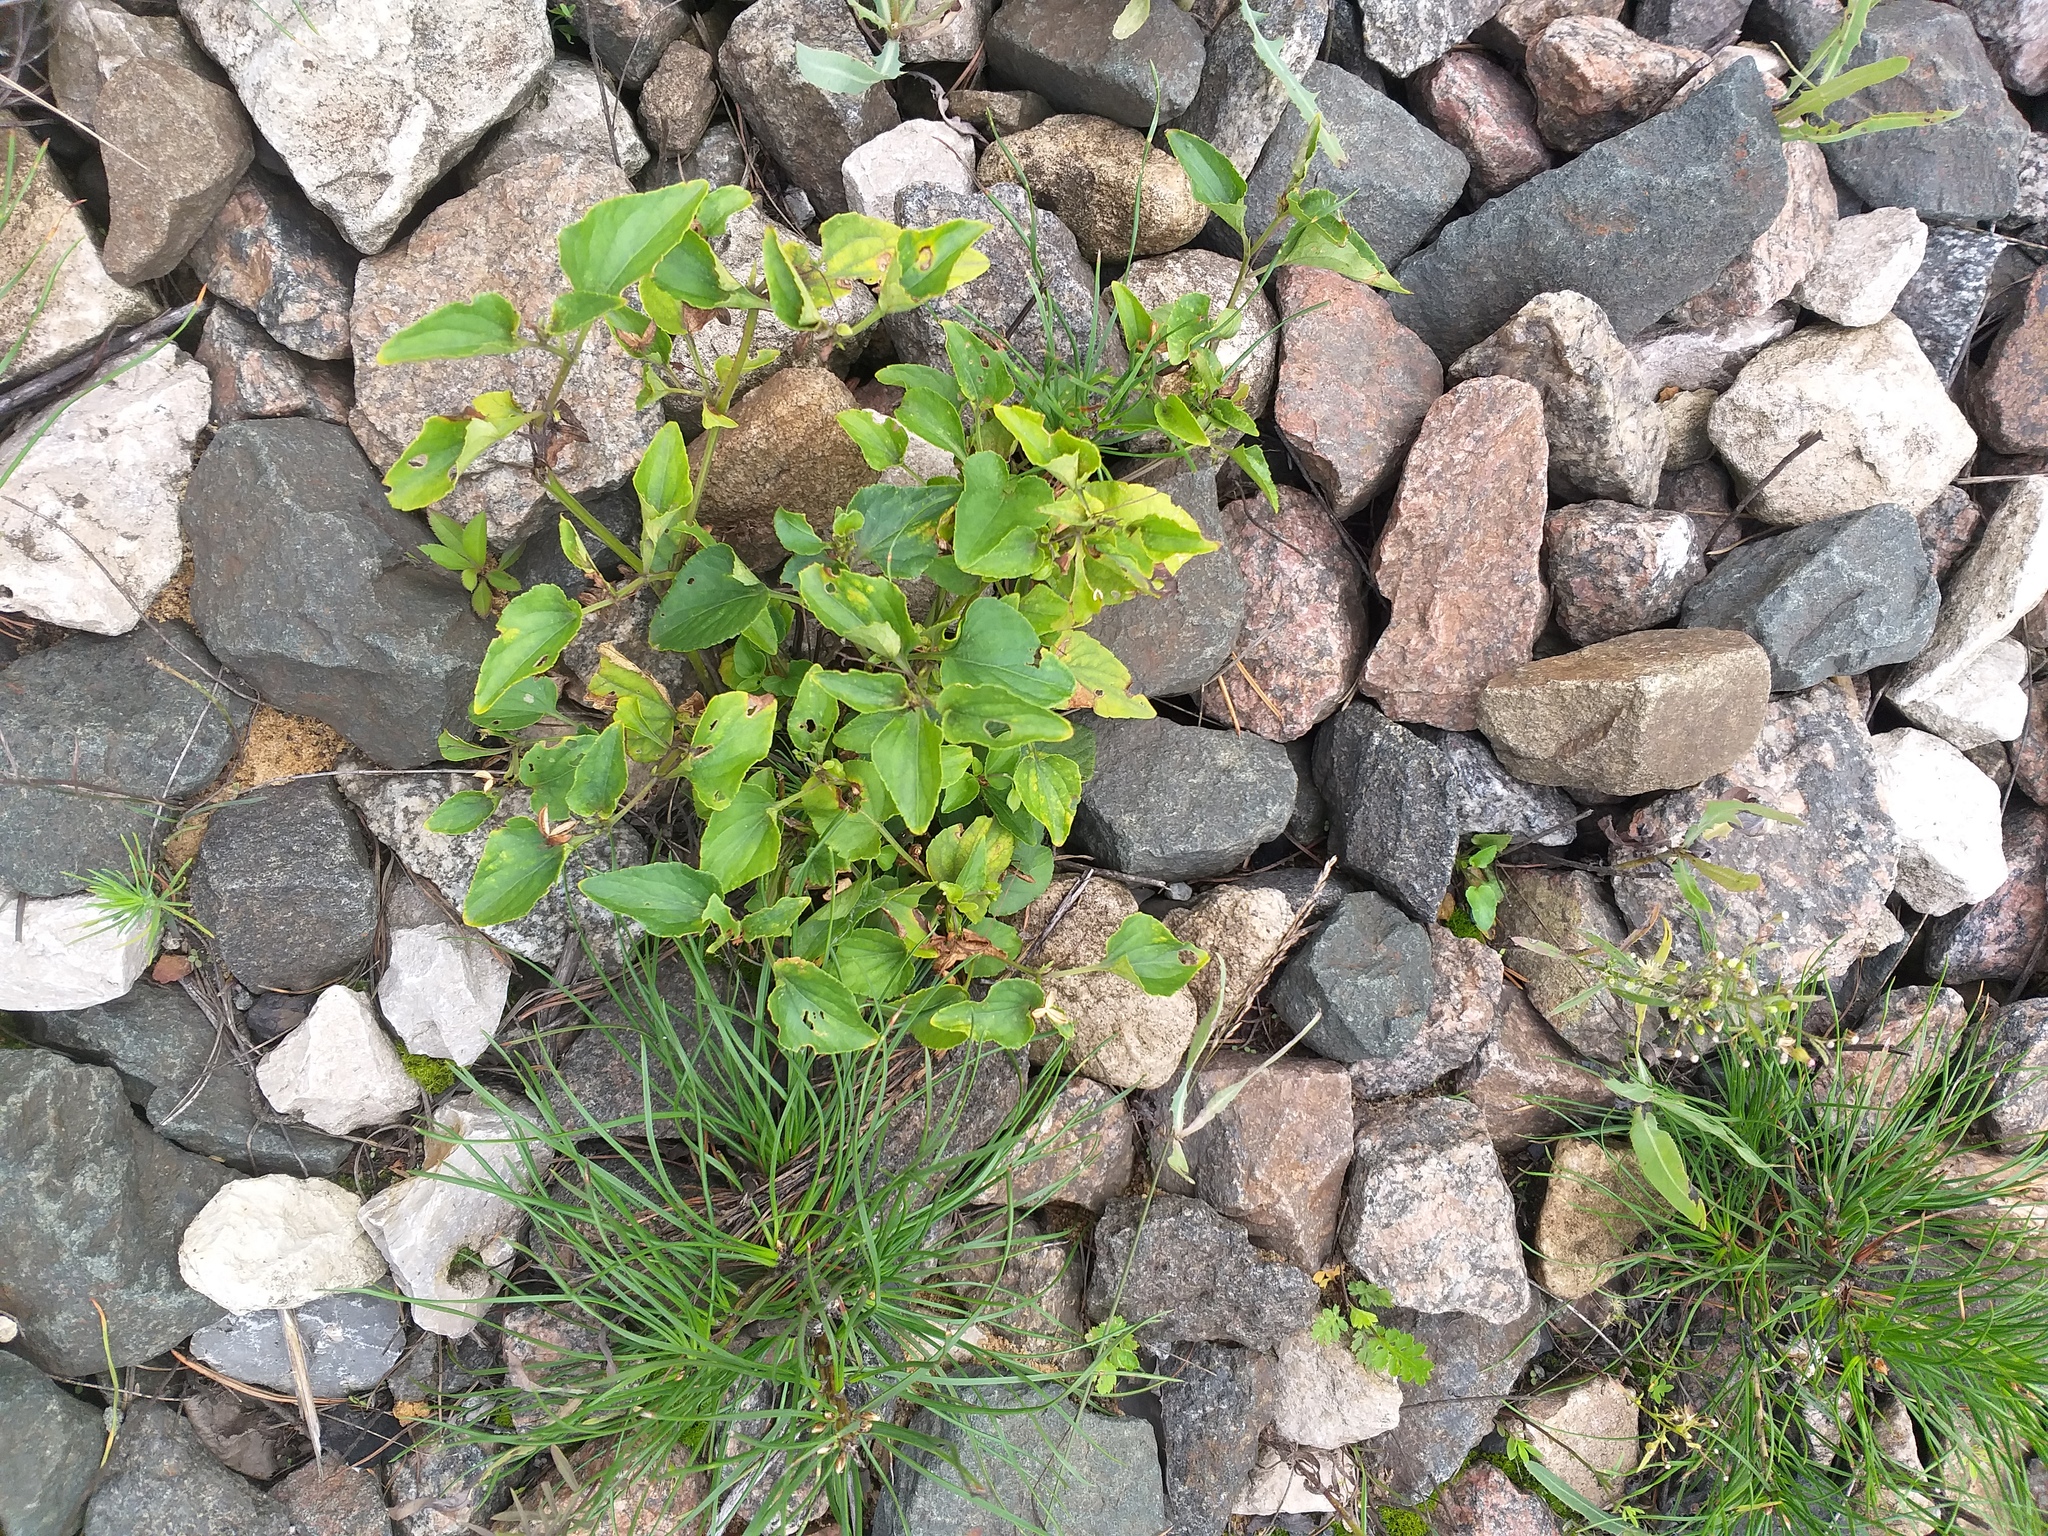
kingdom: Plantae
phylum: Tracheophyta
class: Magnoliopsida
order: Malpighiales
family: Violaceae
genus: Viola
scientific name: Viola canina
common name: Heath dog-violet
